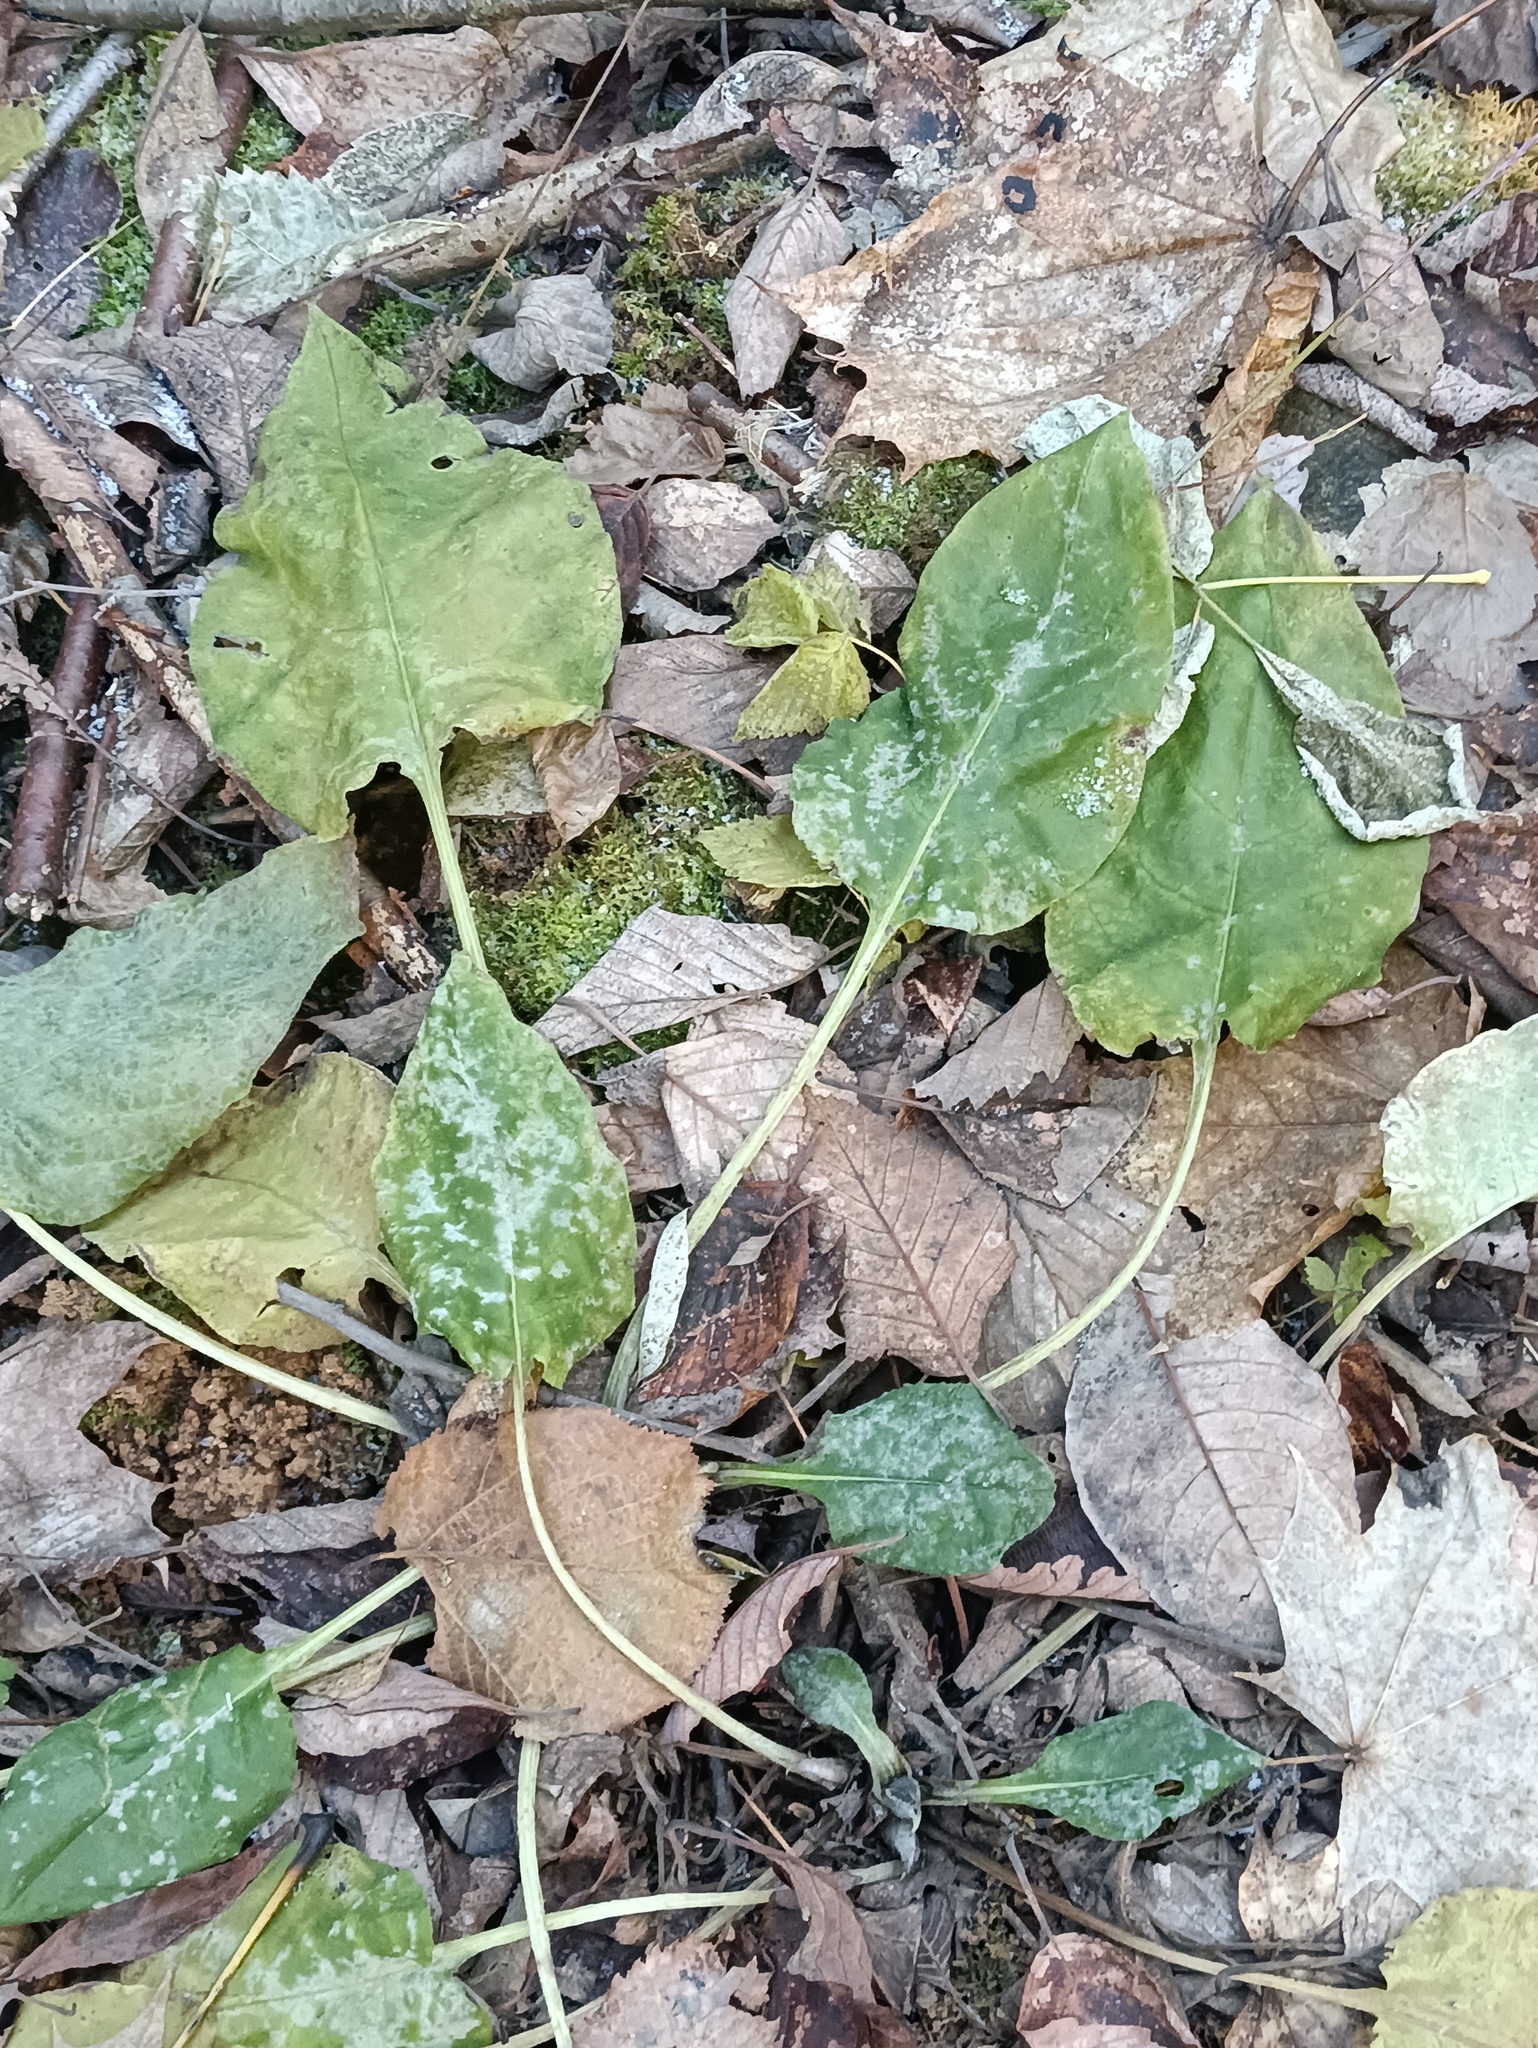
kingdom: Plantae
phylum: Tracheophyta
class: Magnoliopsida
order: Boraginales
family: Boraginaceae
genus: Pulmonaria
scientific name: Pulmonaria obscura
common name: Suffolk lungwort
